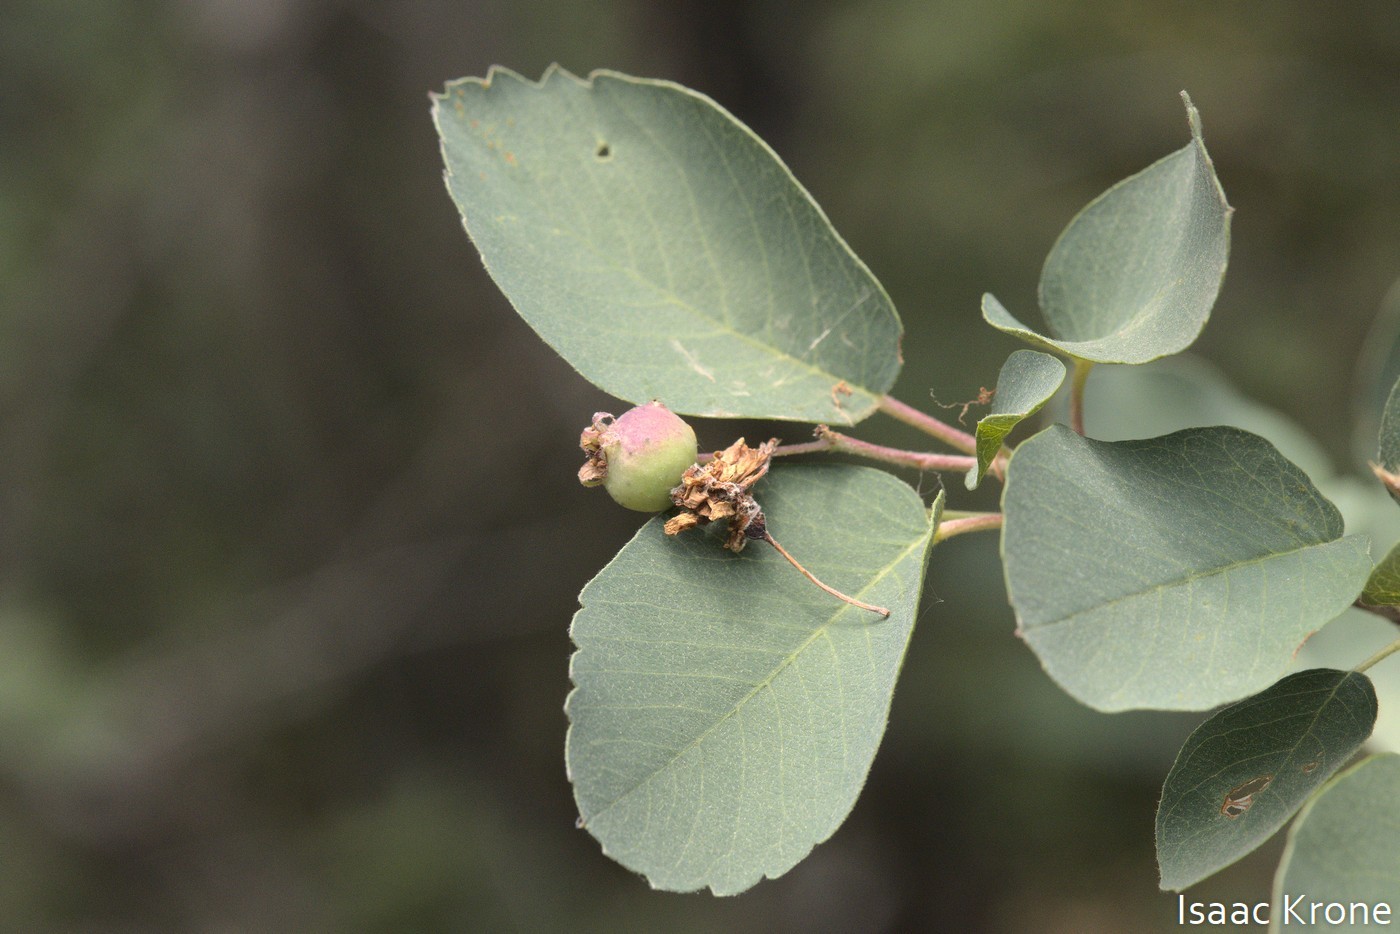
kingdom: Plantae
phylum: Tracheophyta
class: Magnoliopsida
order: Rosales
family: Rosaceae
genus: Amelanchier
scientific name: Amelanchier utahensis
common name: Utah serviceberry
